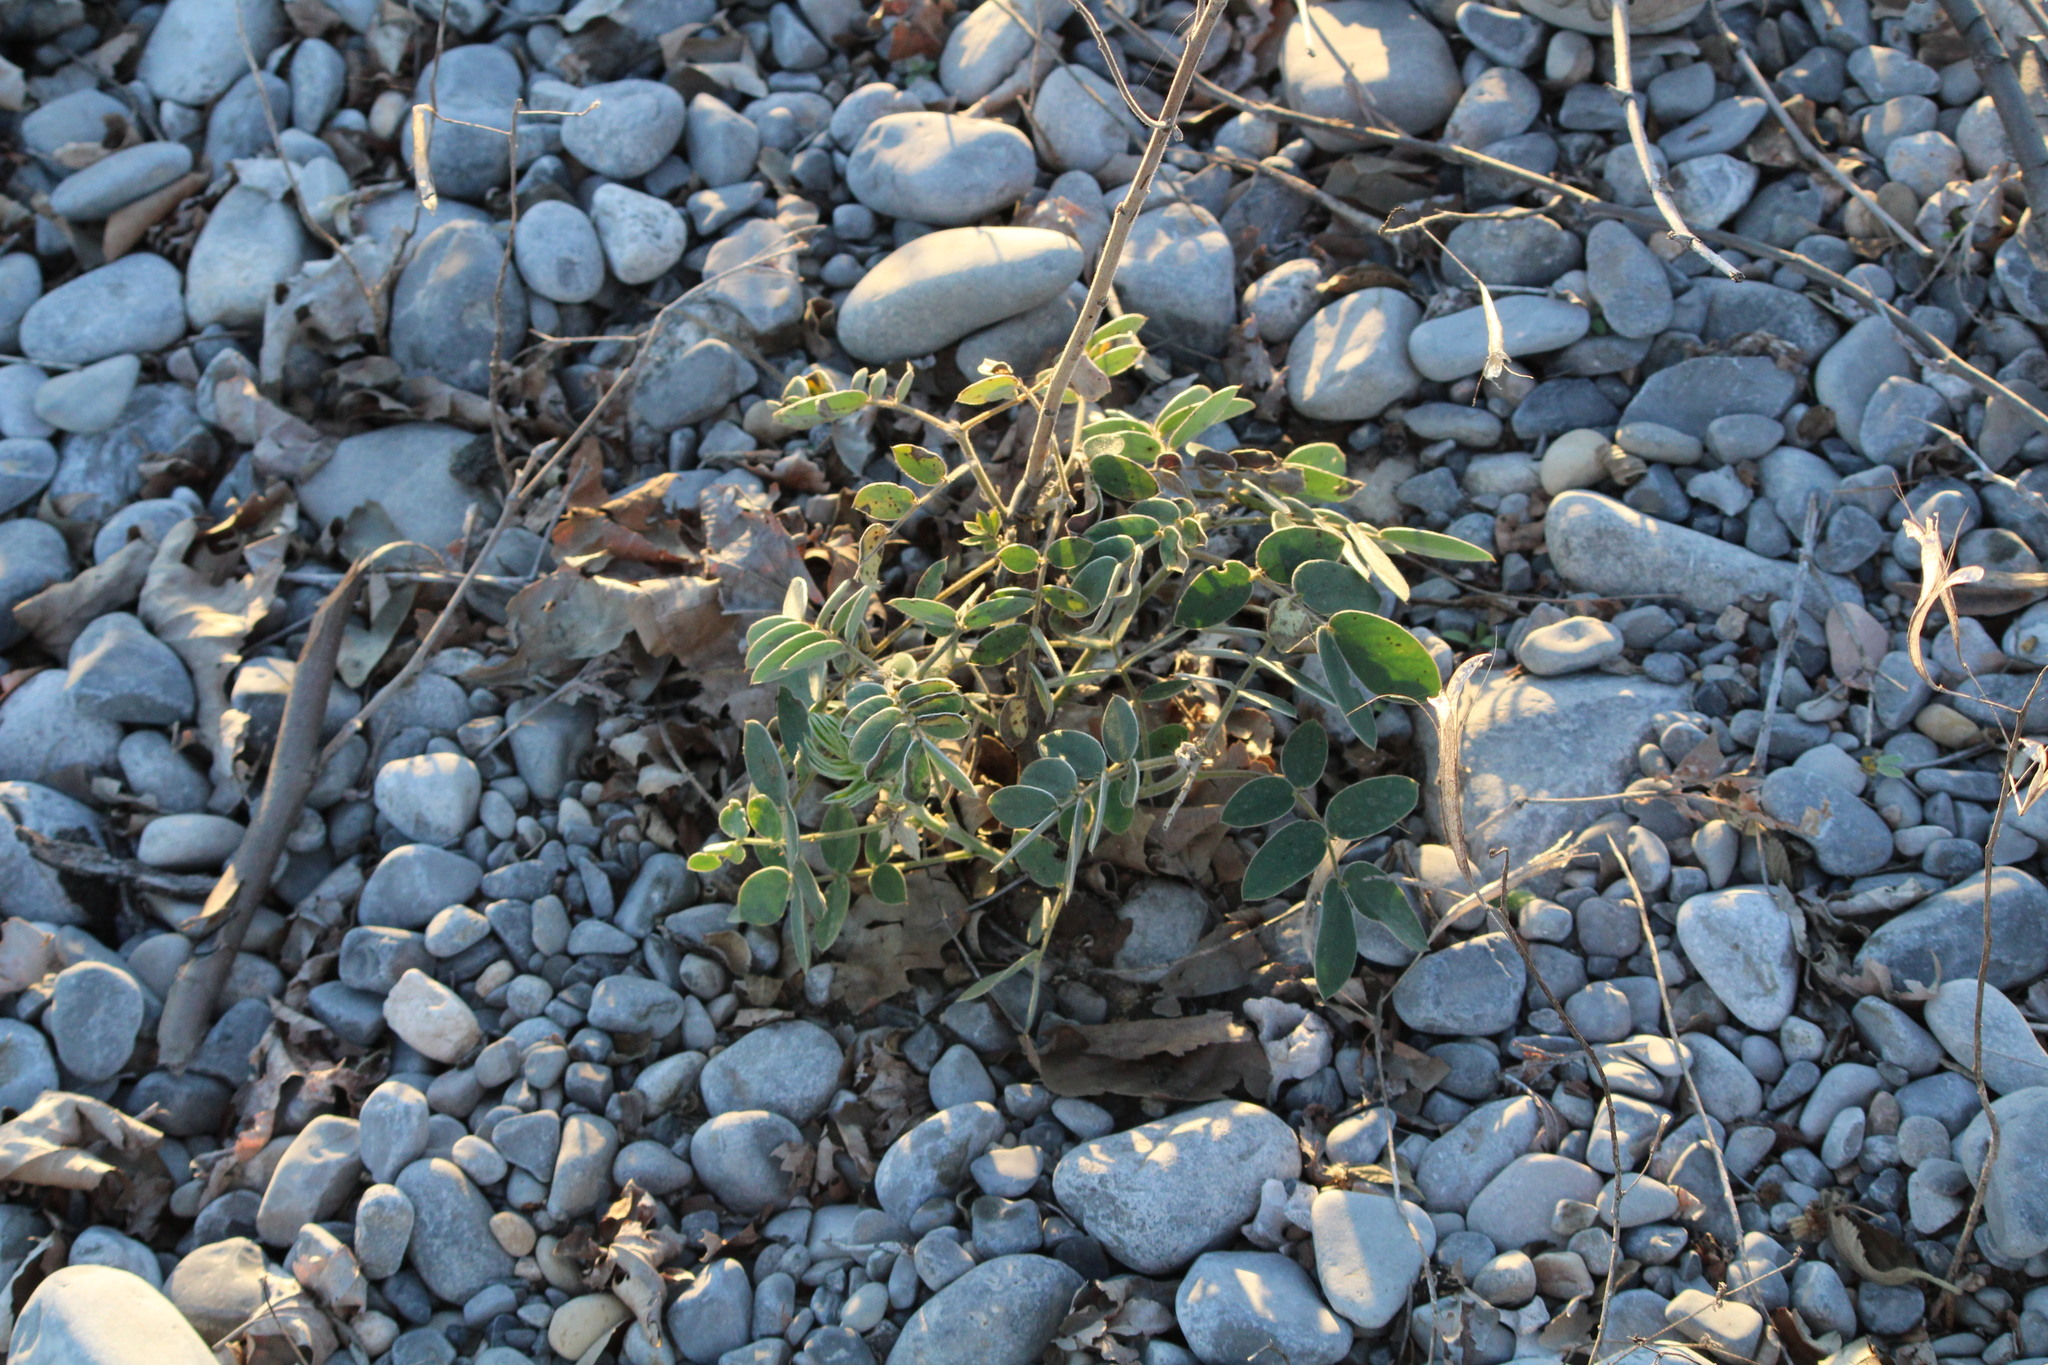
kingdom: Plantae
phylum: Tracheophyta
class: Magnoliopsida
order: Fabales
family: Fabaceae
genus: Senna
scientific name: Senna lindheimeriana
